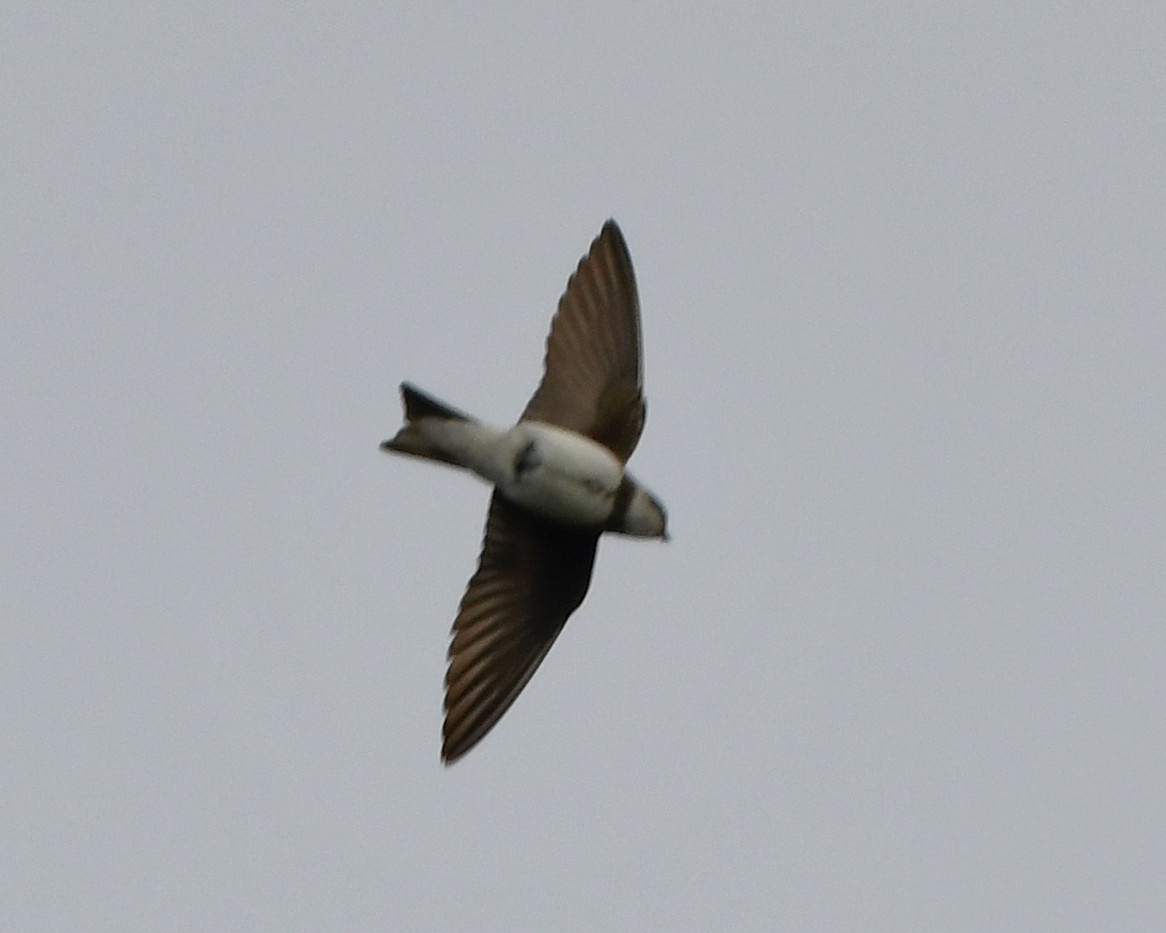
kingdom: Animalia
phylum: Chordata
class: Aves
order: Passeriformes
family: Hirundinidae
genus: Riparia
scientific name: Riparia riparia
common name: Sand martin
